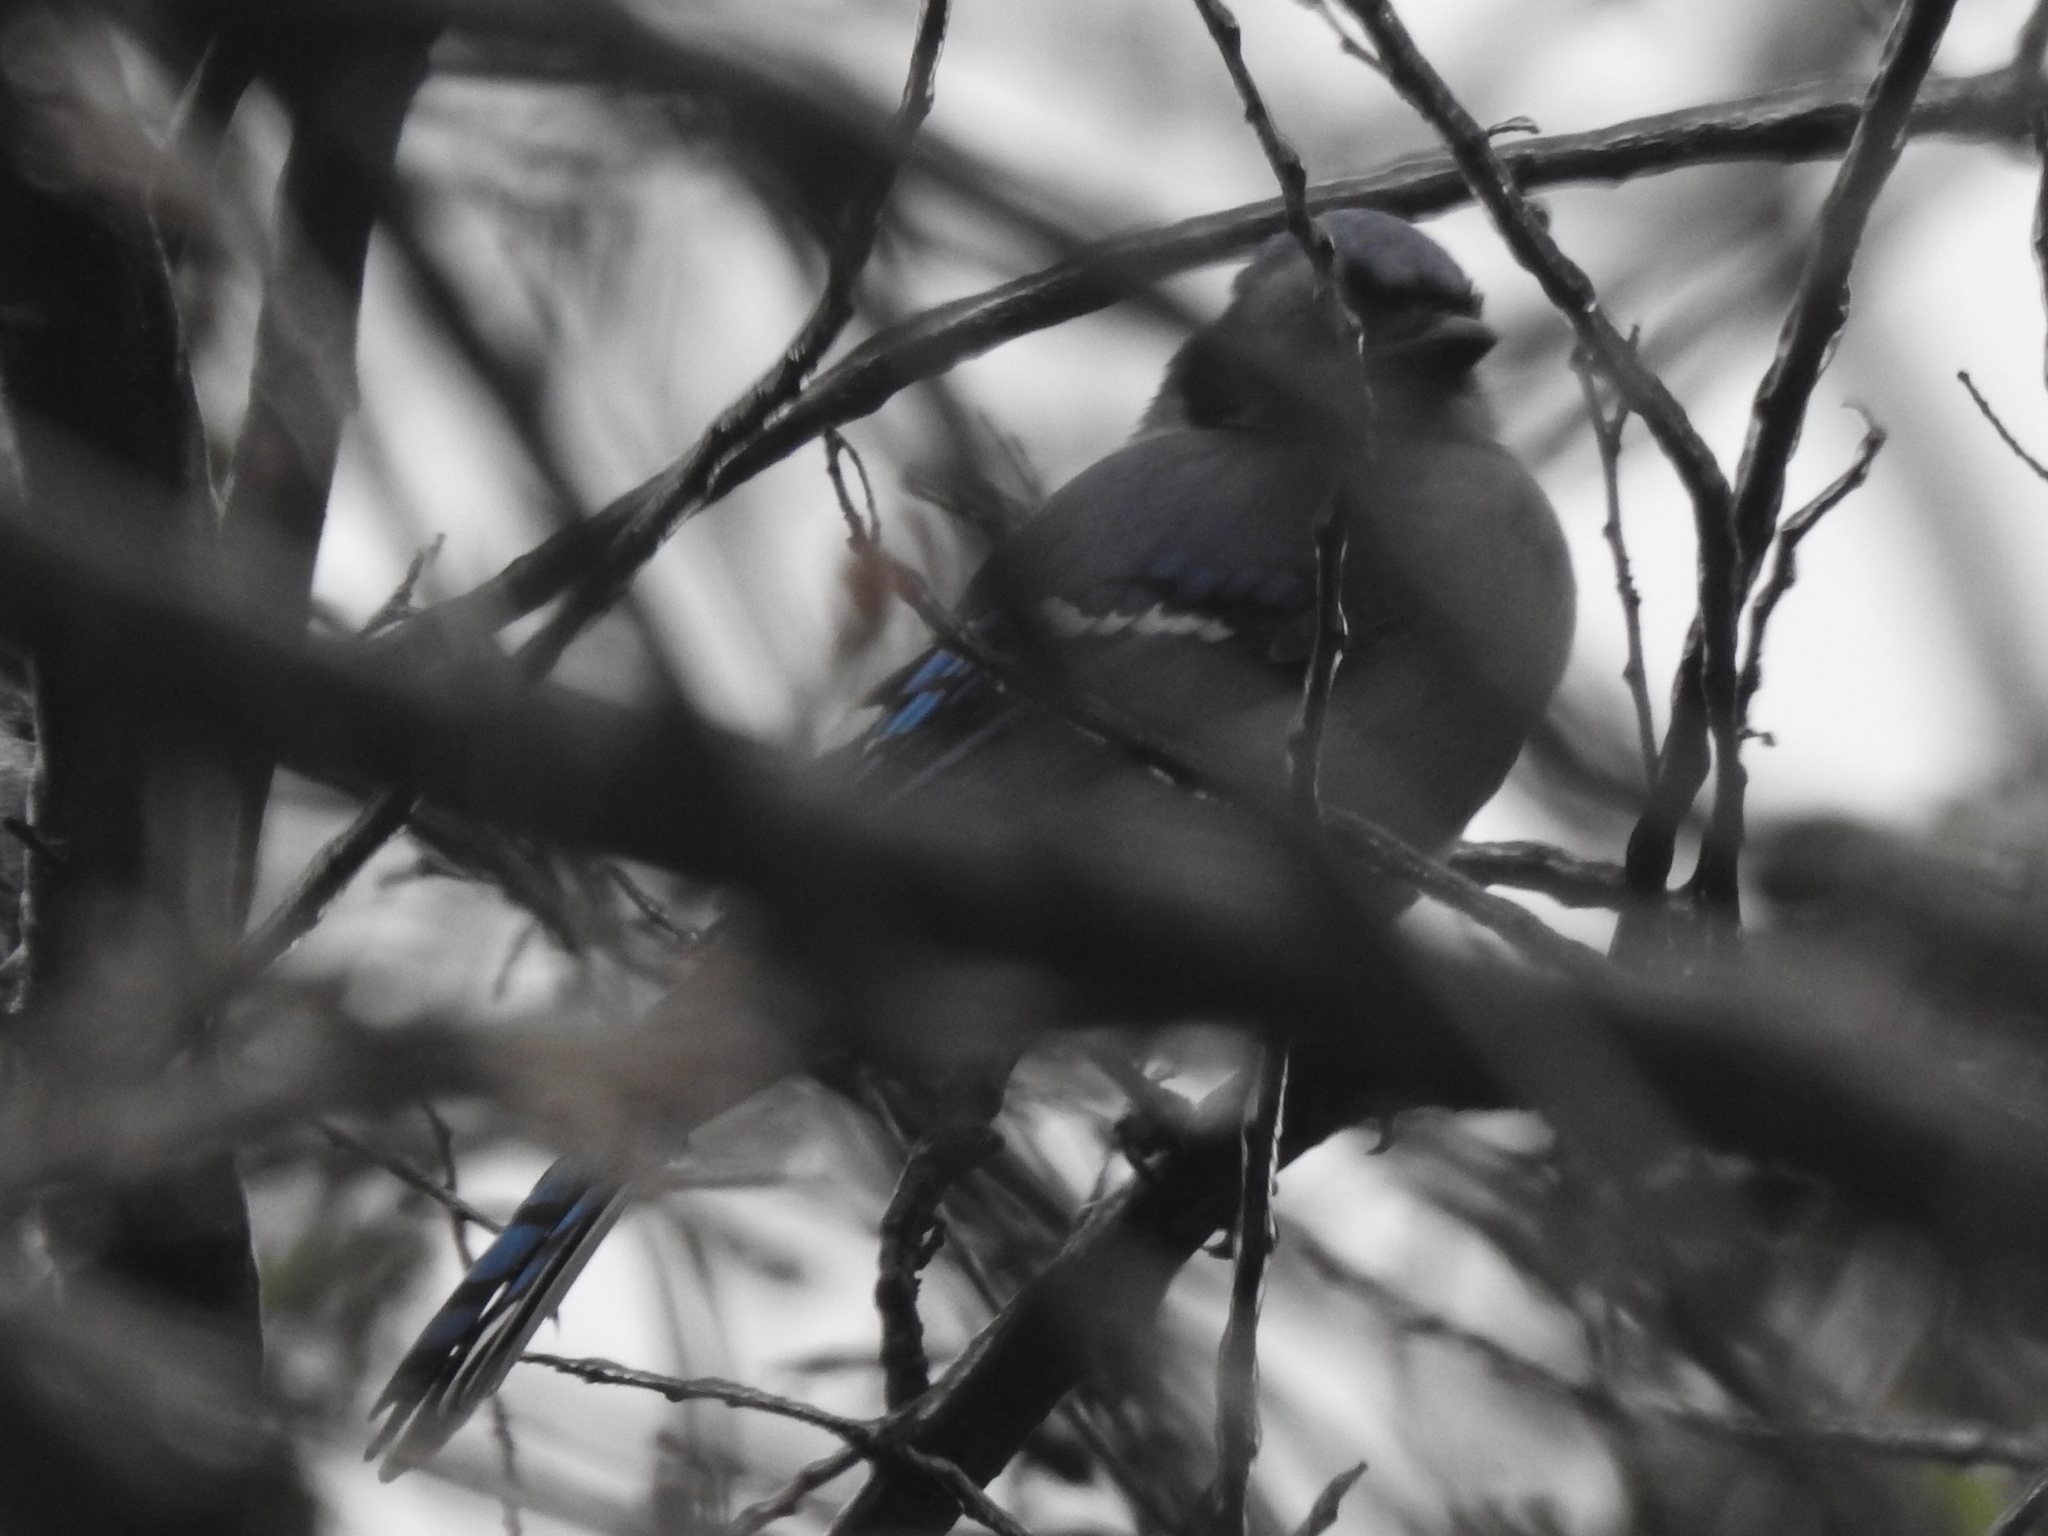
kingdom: Animalia
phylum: Chordata
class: Aves
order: Passeriformes
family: Corvidae
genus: Cyanocitta
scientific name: Cyanocitta cristata
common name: Blue jay
